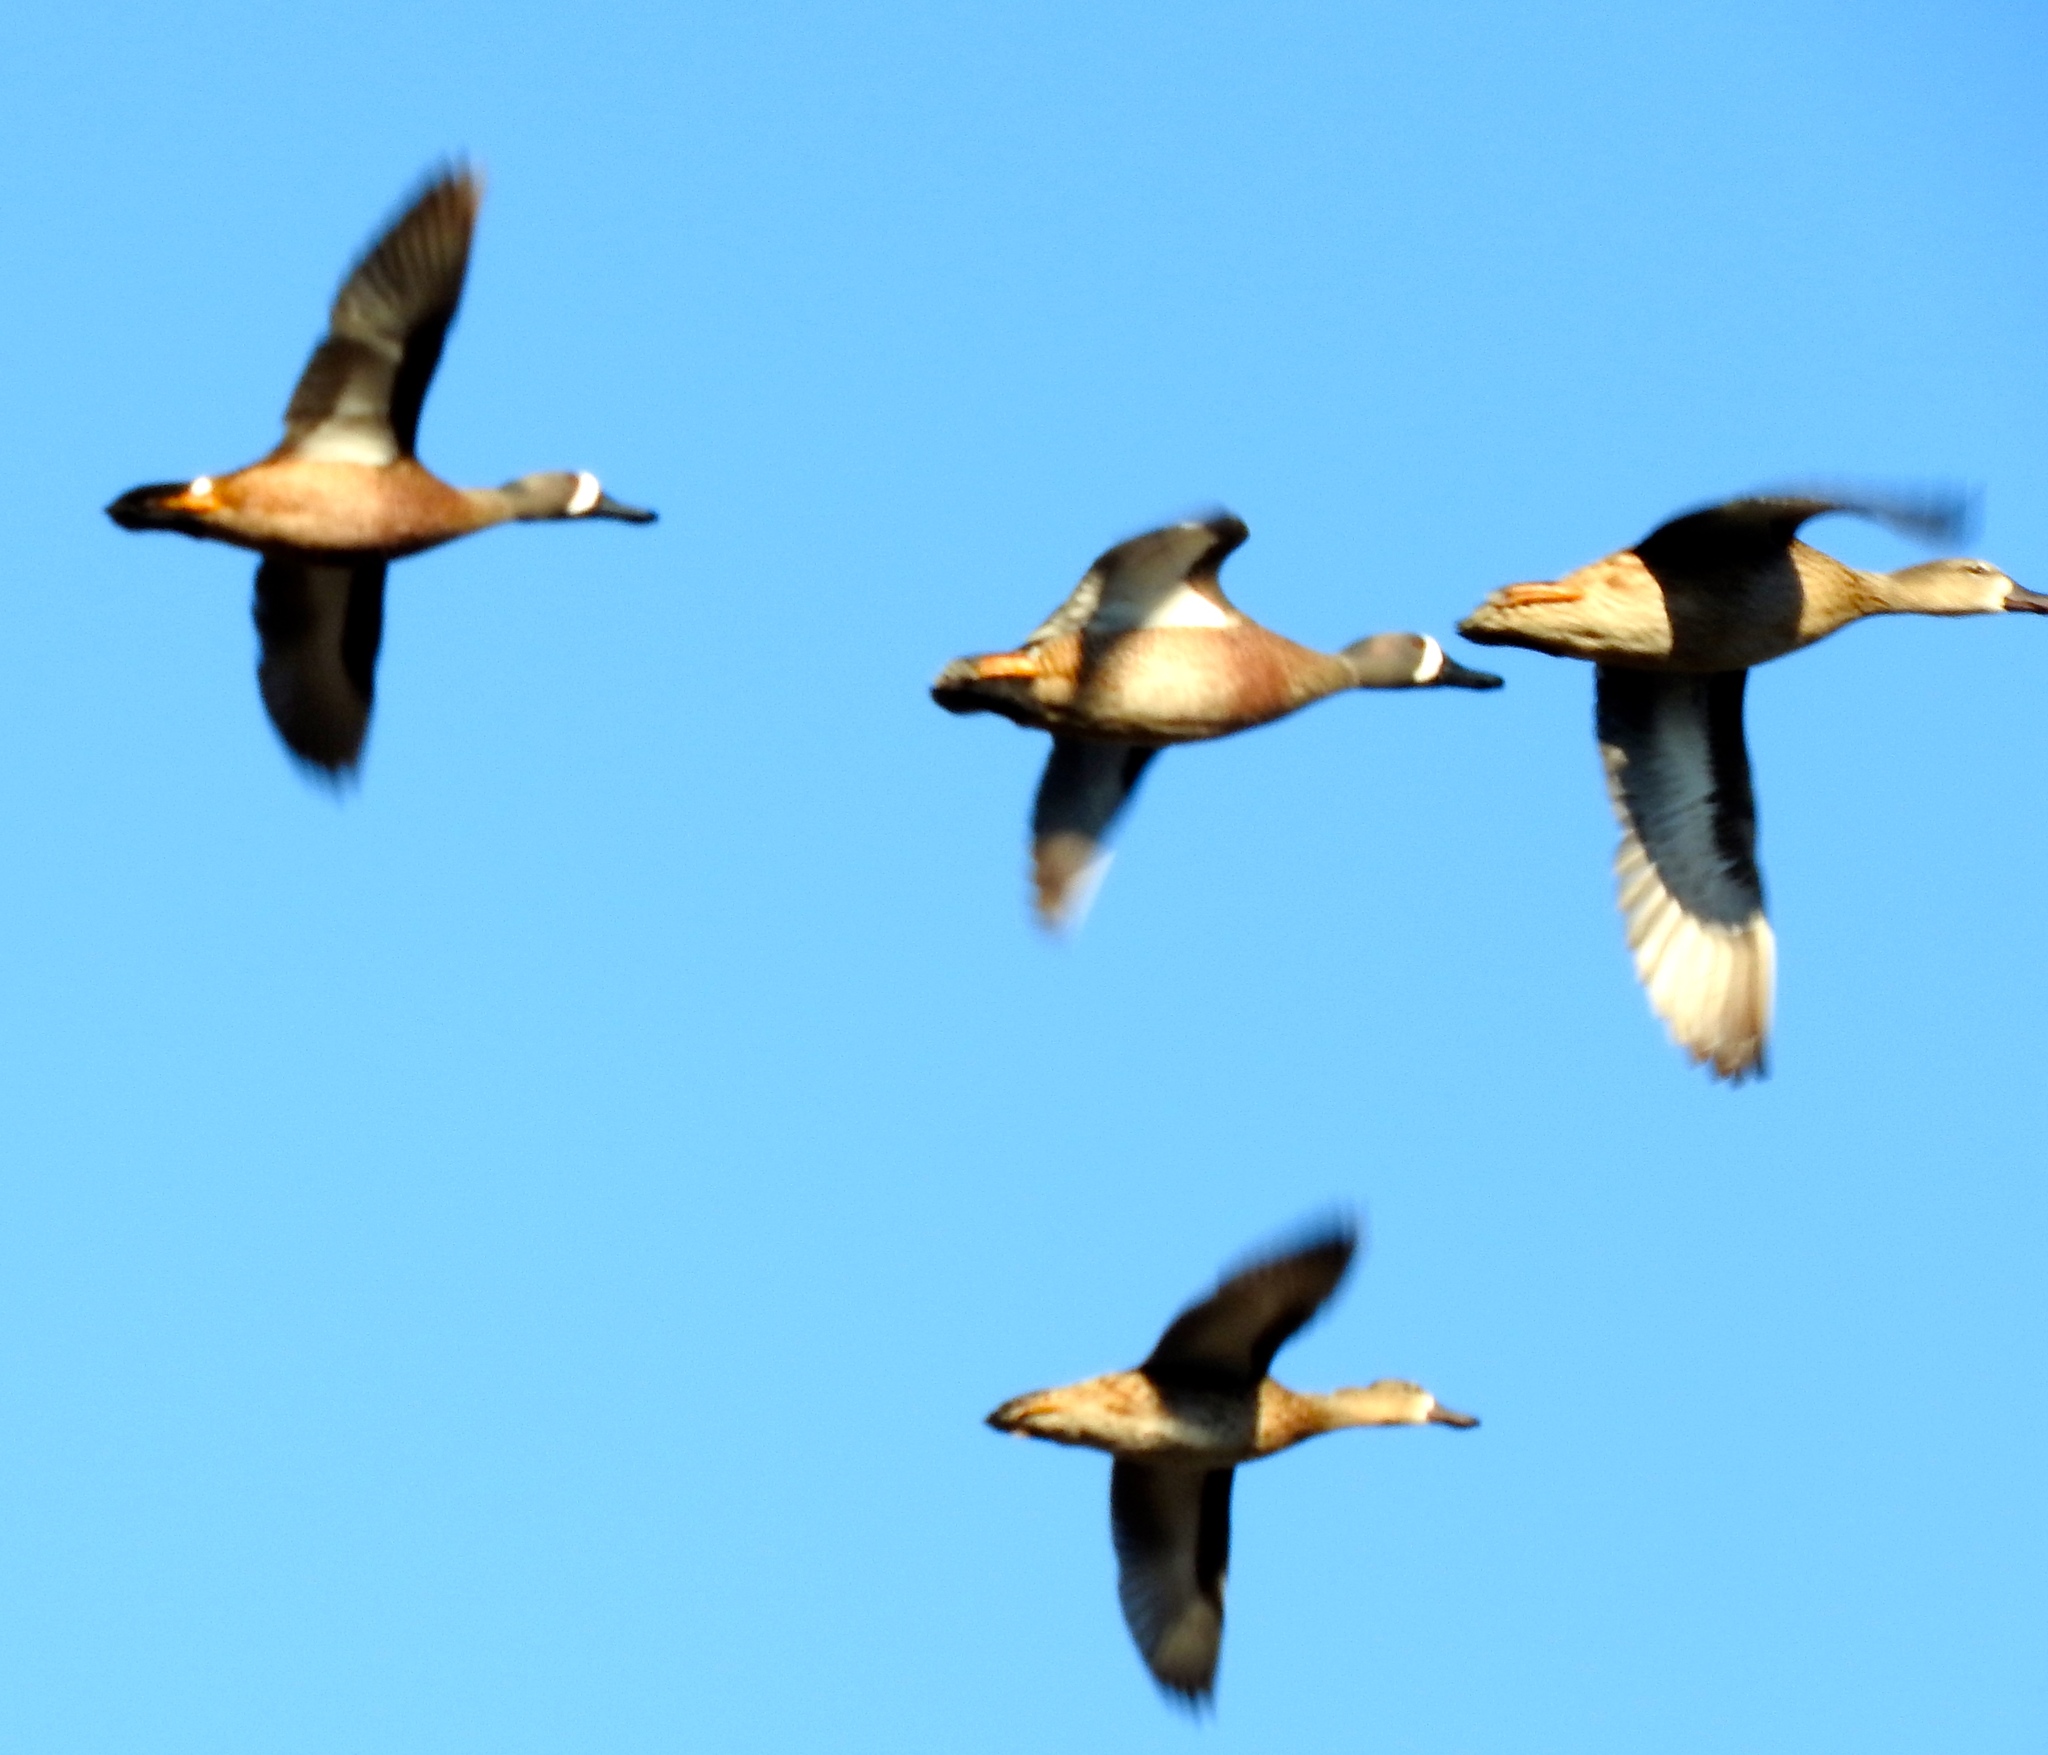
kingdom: Animalia
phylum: Chordata
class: Aves
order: Anseriformes
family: Anatidae
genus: Spatula
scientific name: Spatula discors
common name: Blue-winged teal
